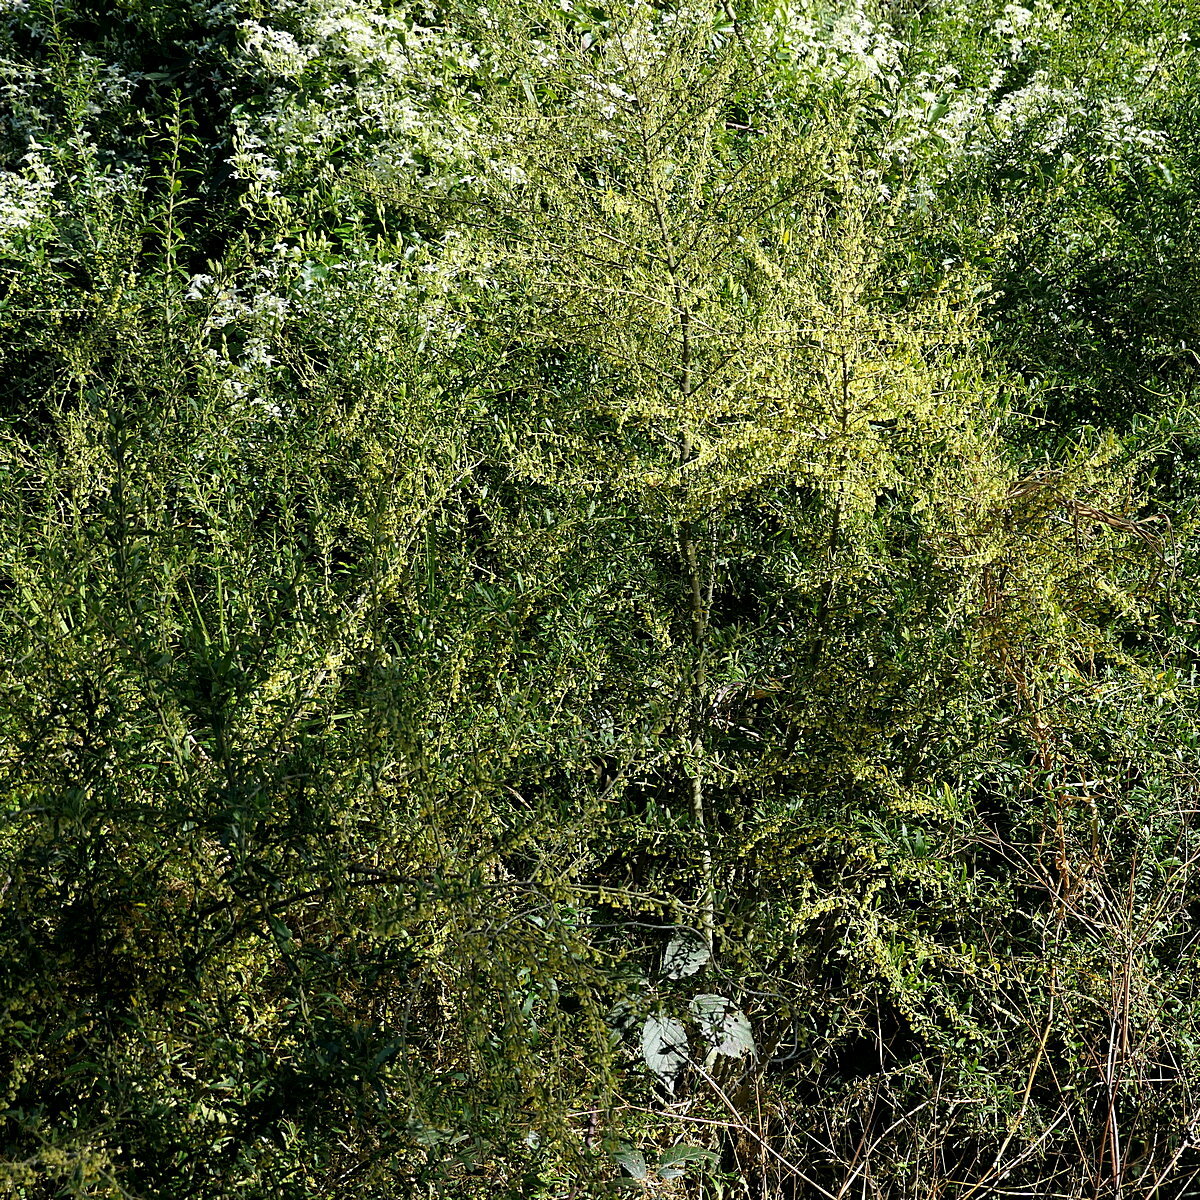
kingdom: Plantae
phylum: Tracheophyta
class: Magnoliopsida
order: Malpighiales
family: Violaceae
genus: Melicytus
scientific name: Melicytus dentatus
